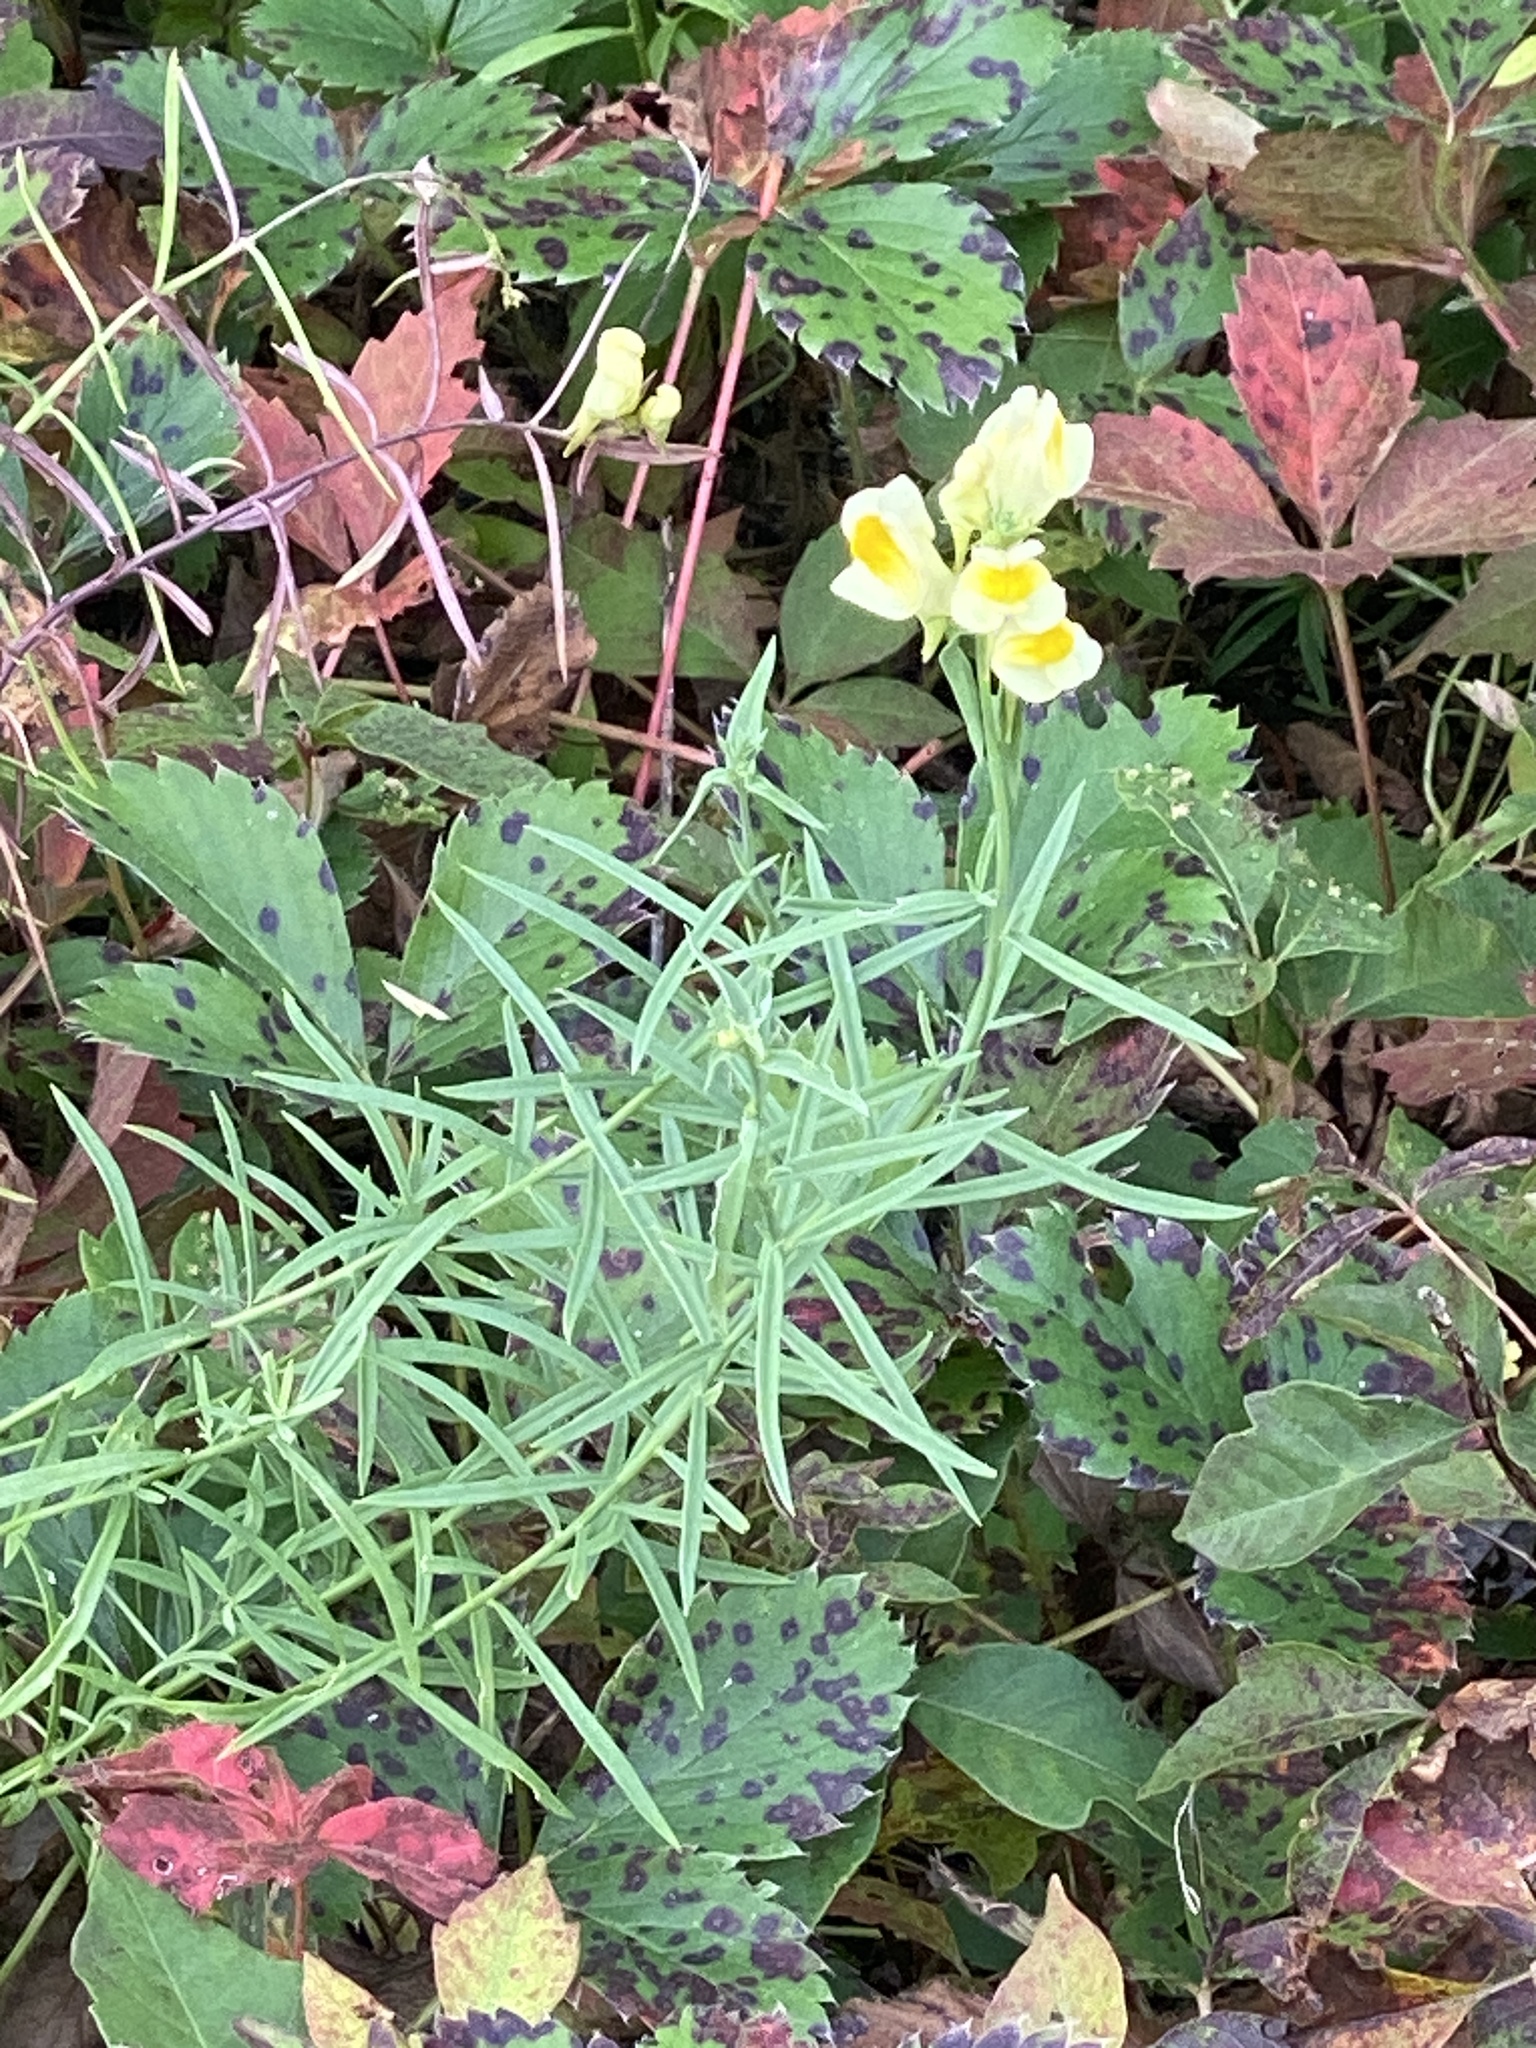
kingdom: Plantae
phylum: Tracheophyta
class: Magnoliopsida
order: Lamiales
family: Plantaginaceae
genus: Linaria
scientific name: Linaria vulgaris
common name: Butter and eggs
